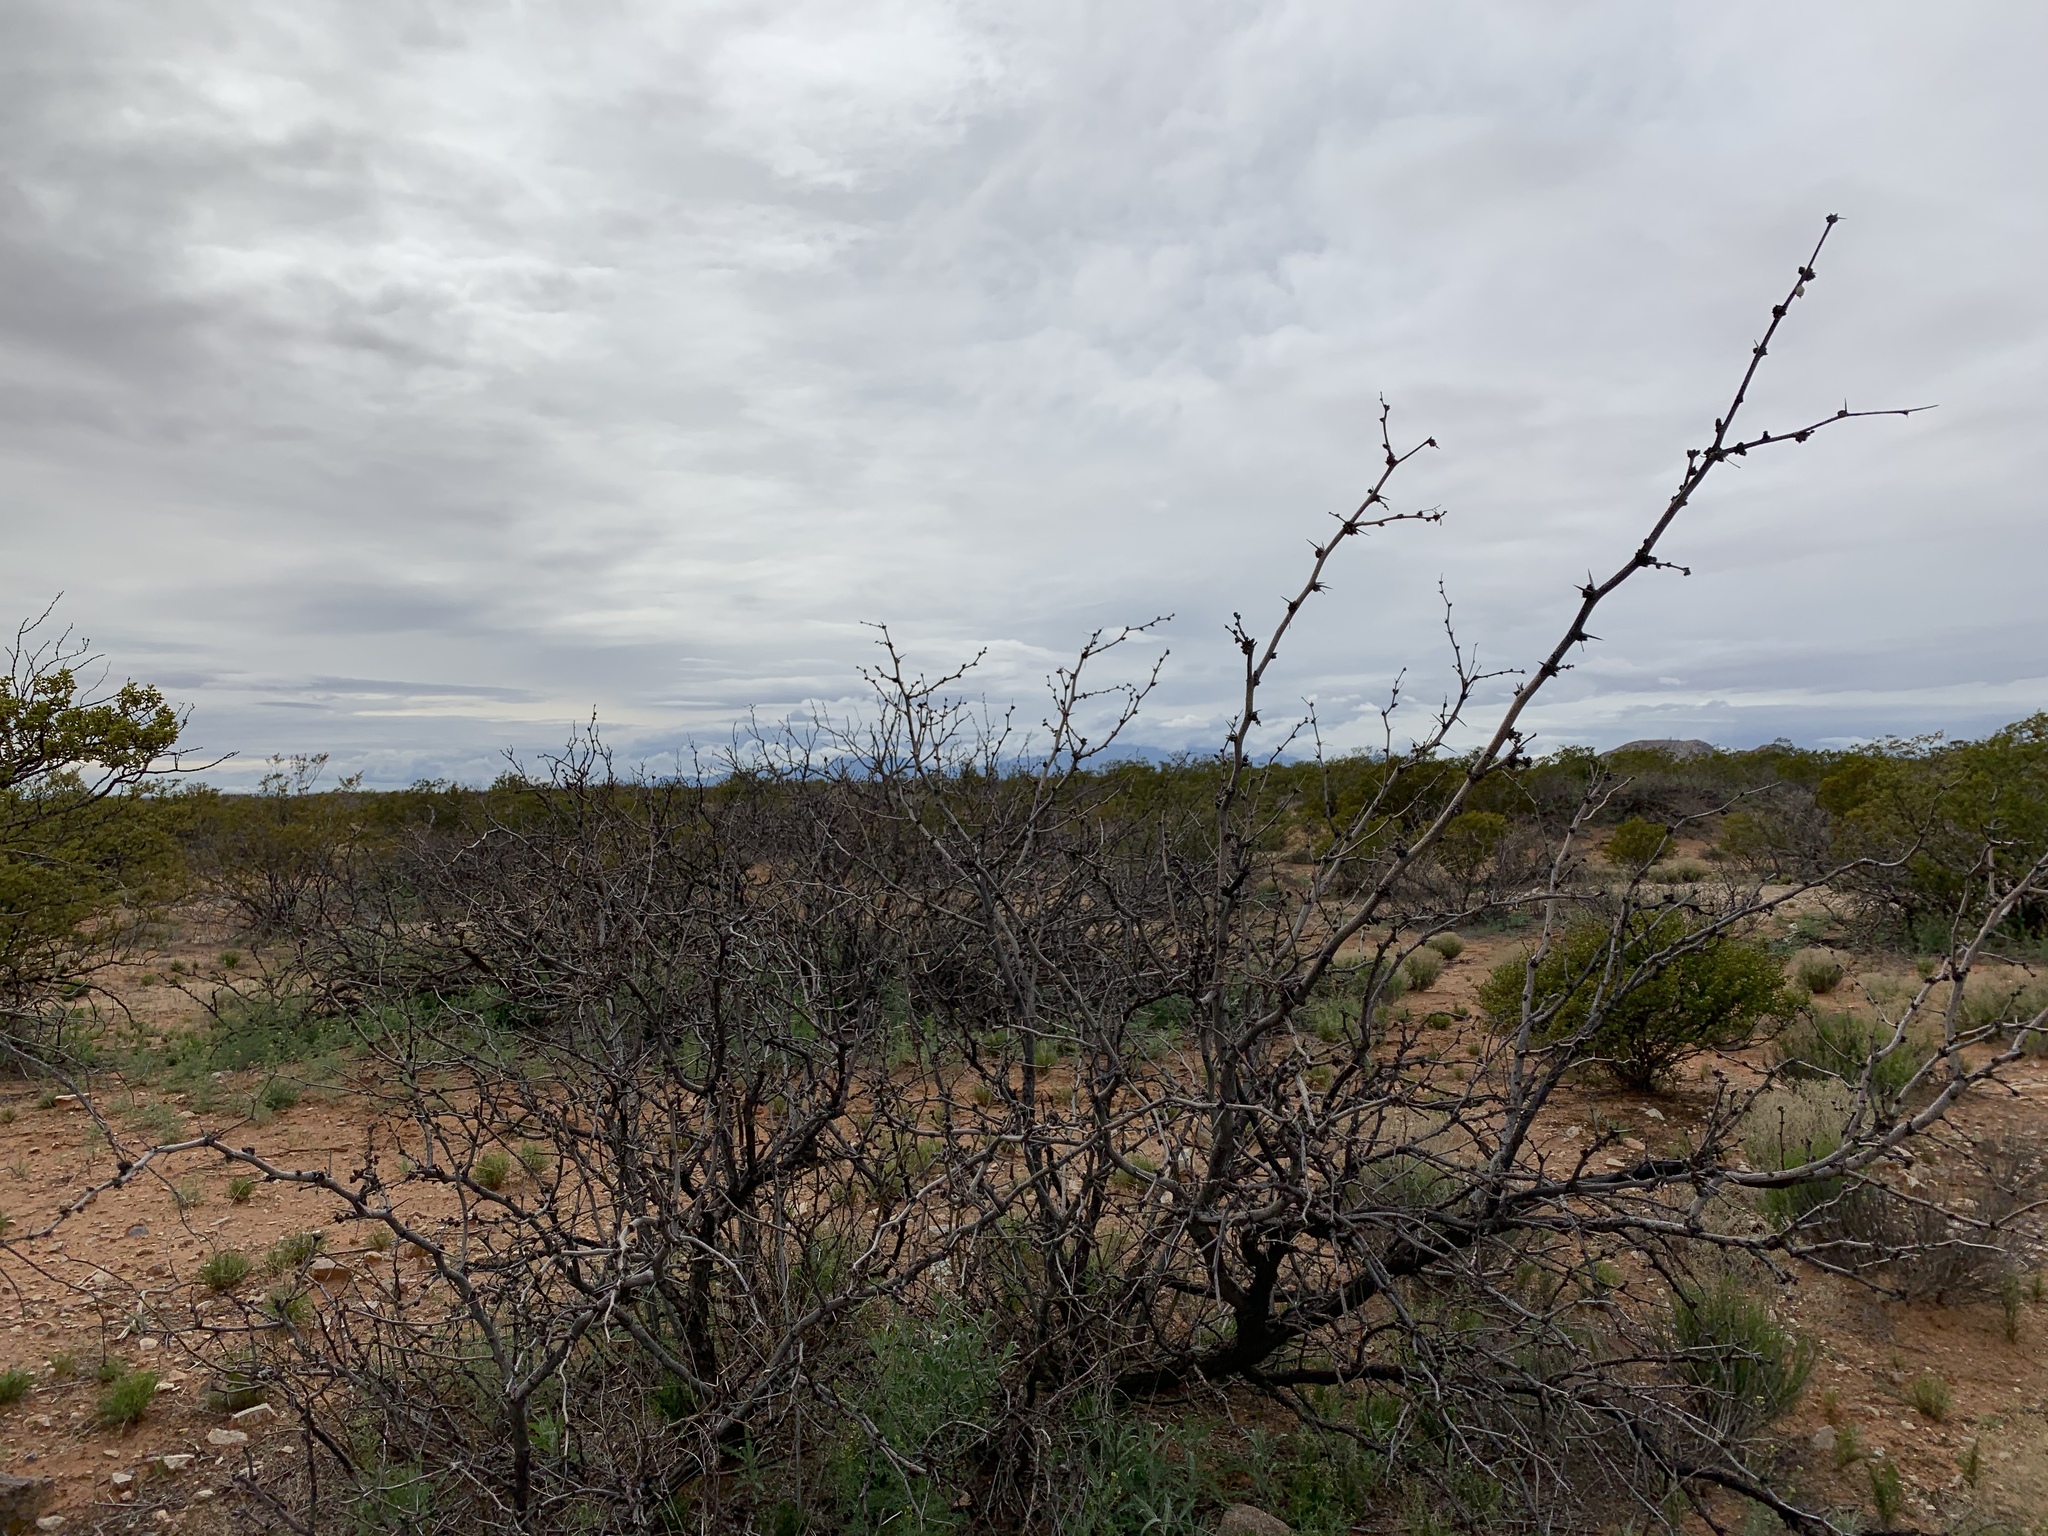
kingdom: Plantae
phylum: Tracheophyta
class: Magnoliopsida
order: Fabales
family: Fabaceae
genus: Prosopis
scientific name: Prosopis glandulosa
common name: Honey mesquite
